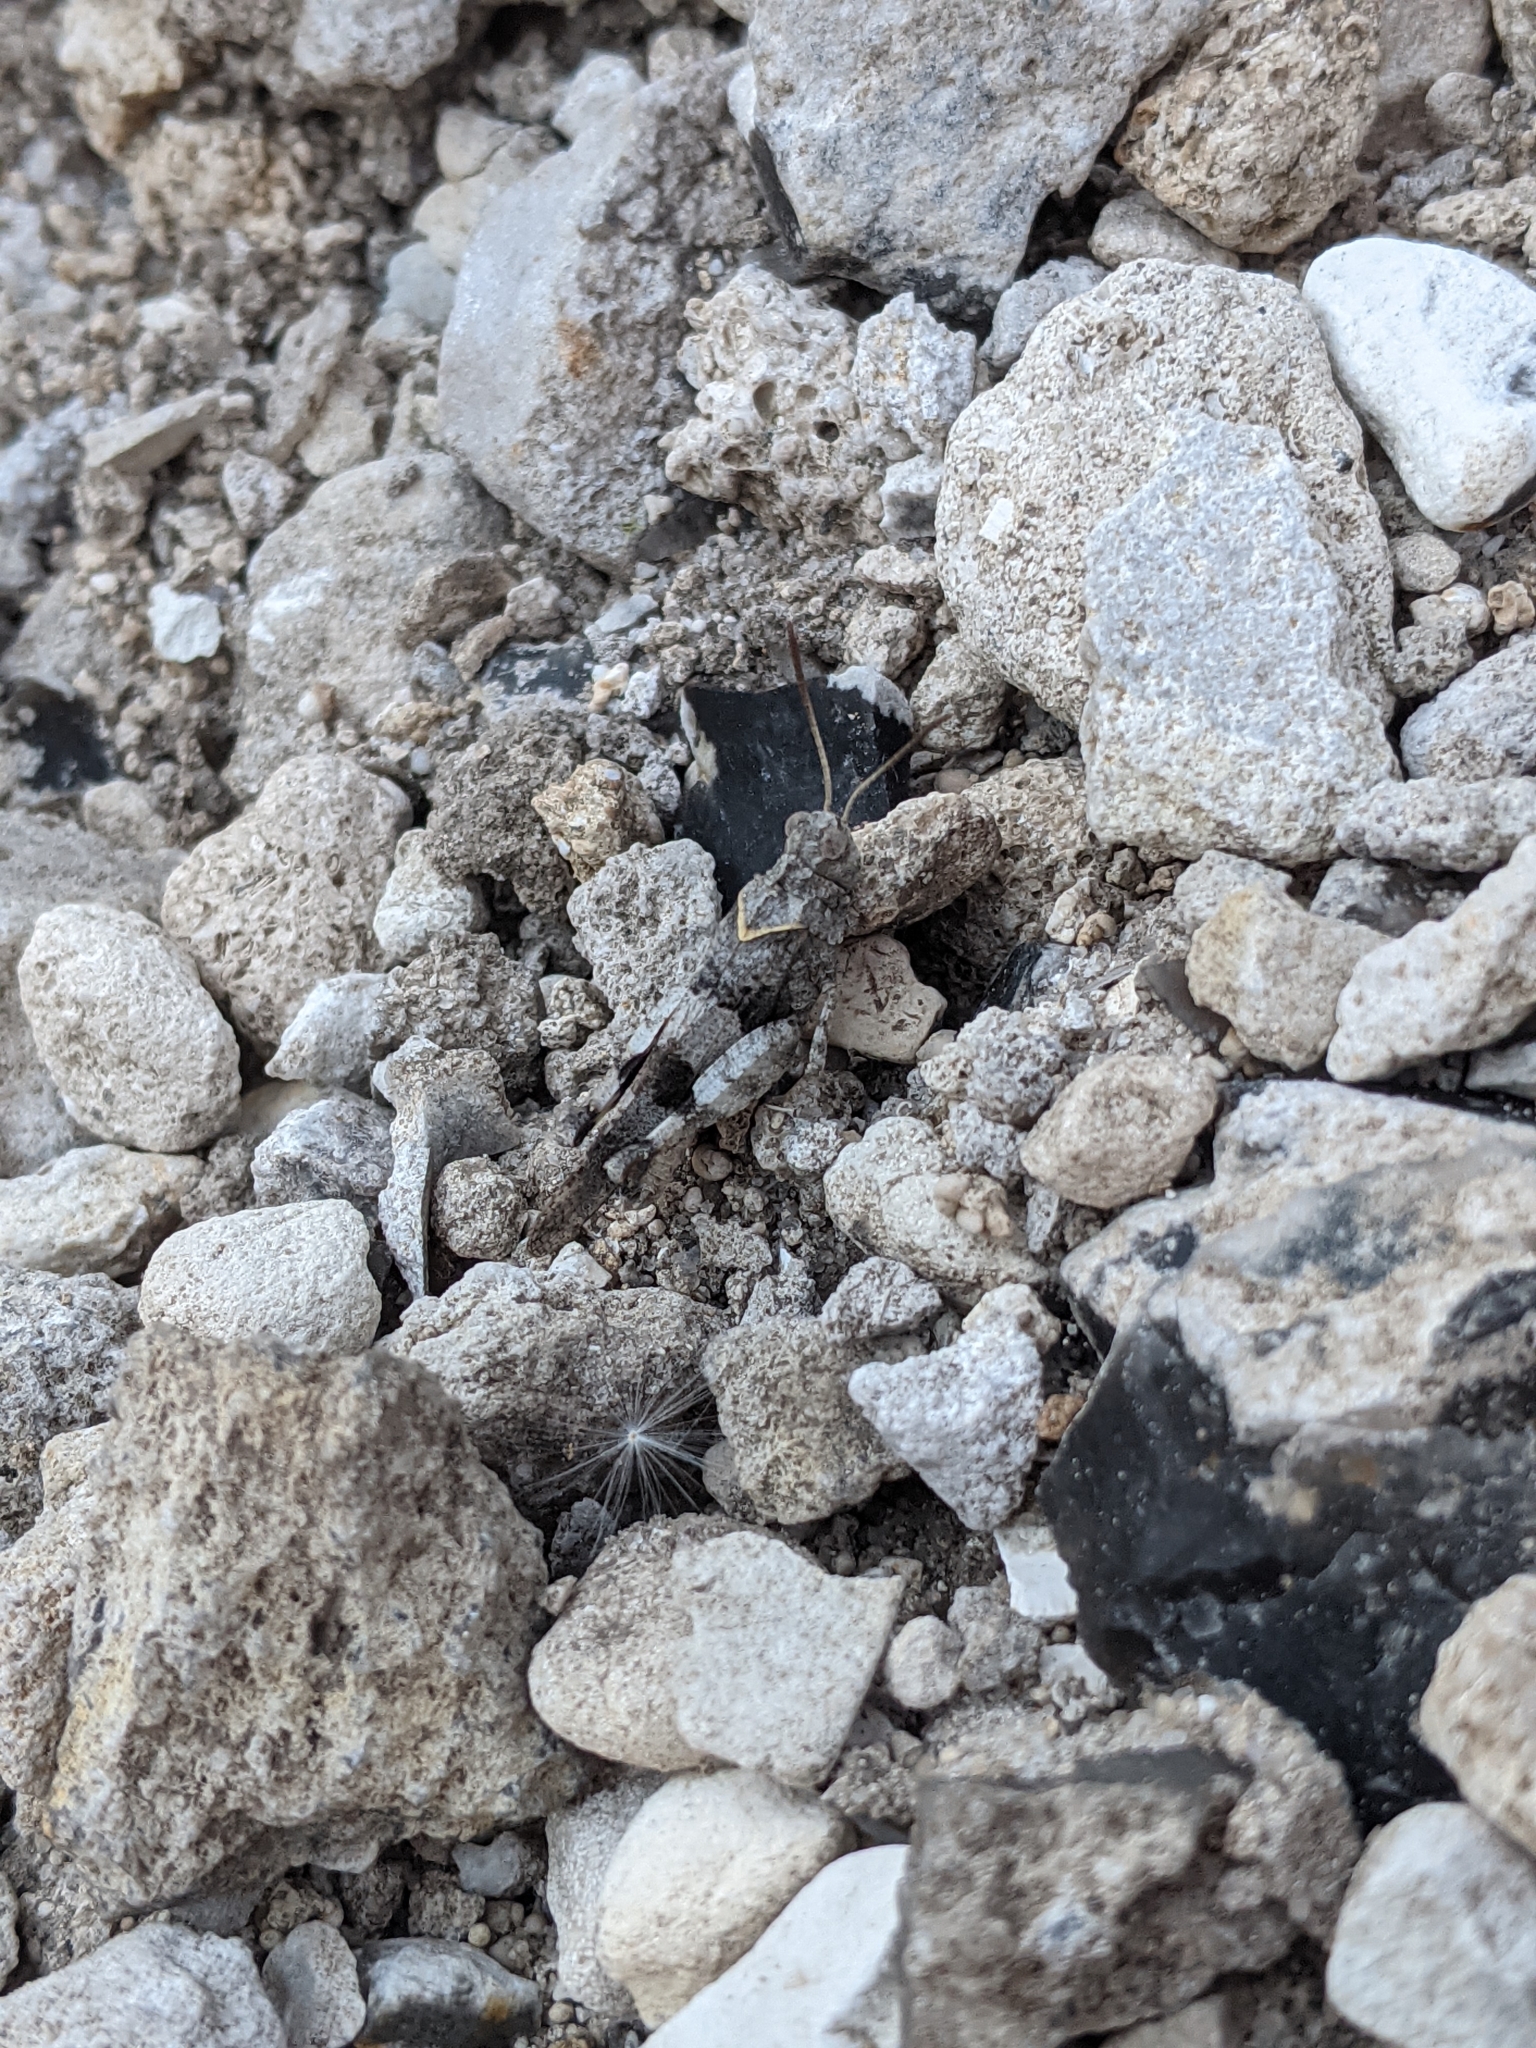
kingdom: Animalia
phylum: Arthropoda
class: Insecta
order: Orthoptera
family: Acrididae
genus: Oedipoda
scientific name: Oedipoda caerulescens
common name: Blue-winged grasshopper
